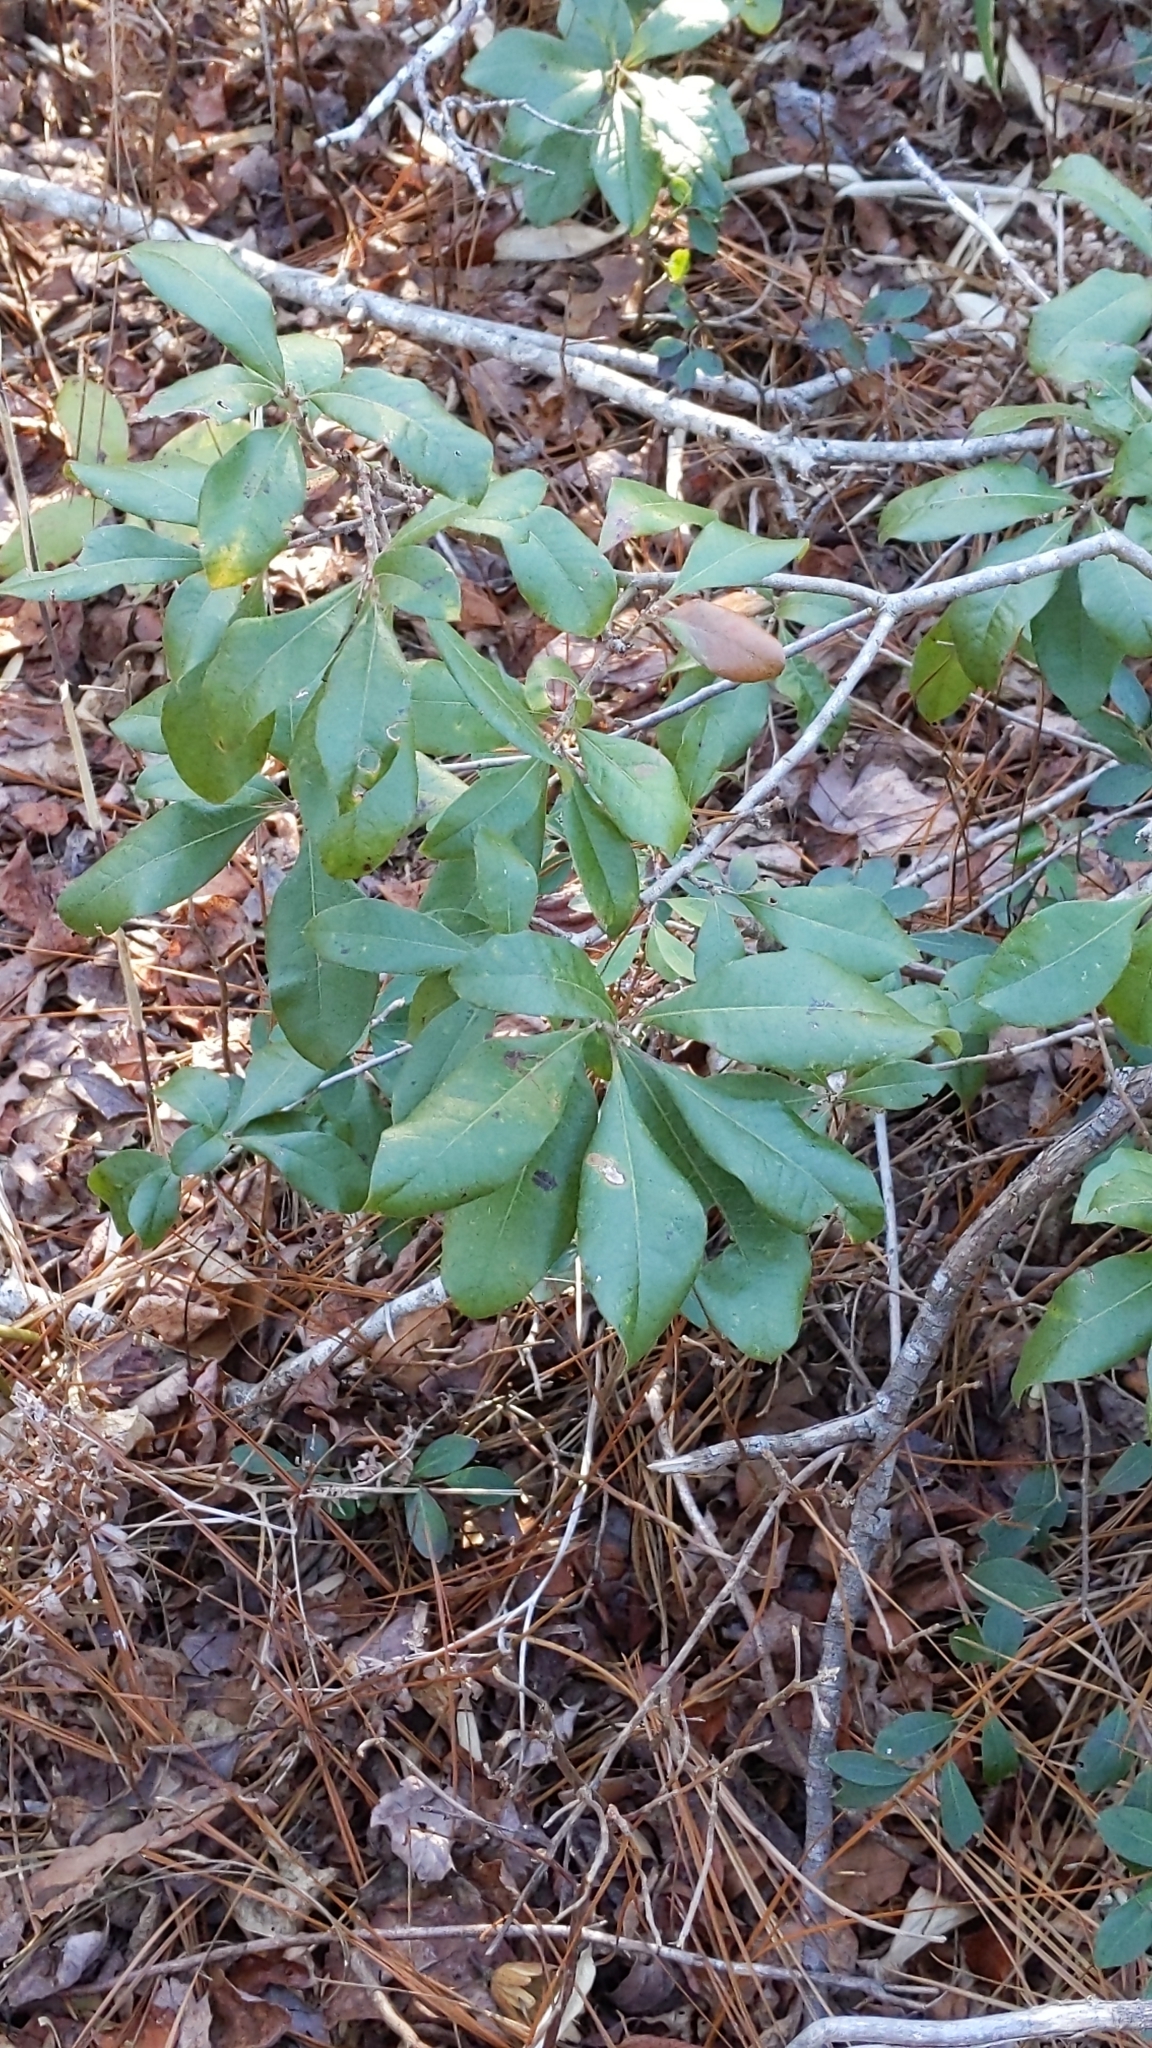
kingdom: Plantae
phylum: Tracheophyta
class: Magnoliopsida
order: Fagales
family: Myricaceae
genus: Morella
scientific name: Morella caroliniensis
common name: Evergreen bayberry
